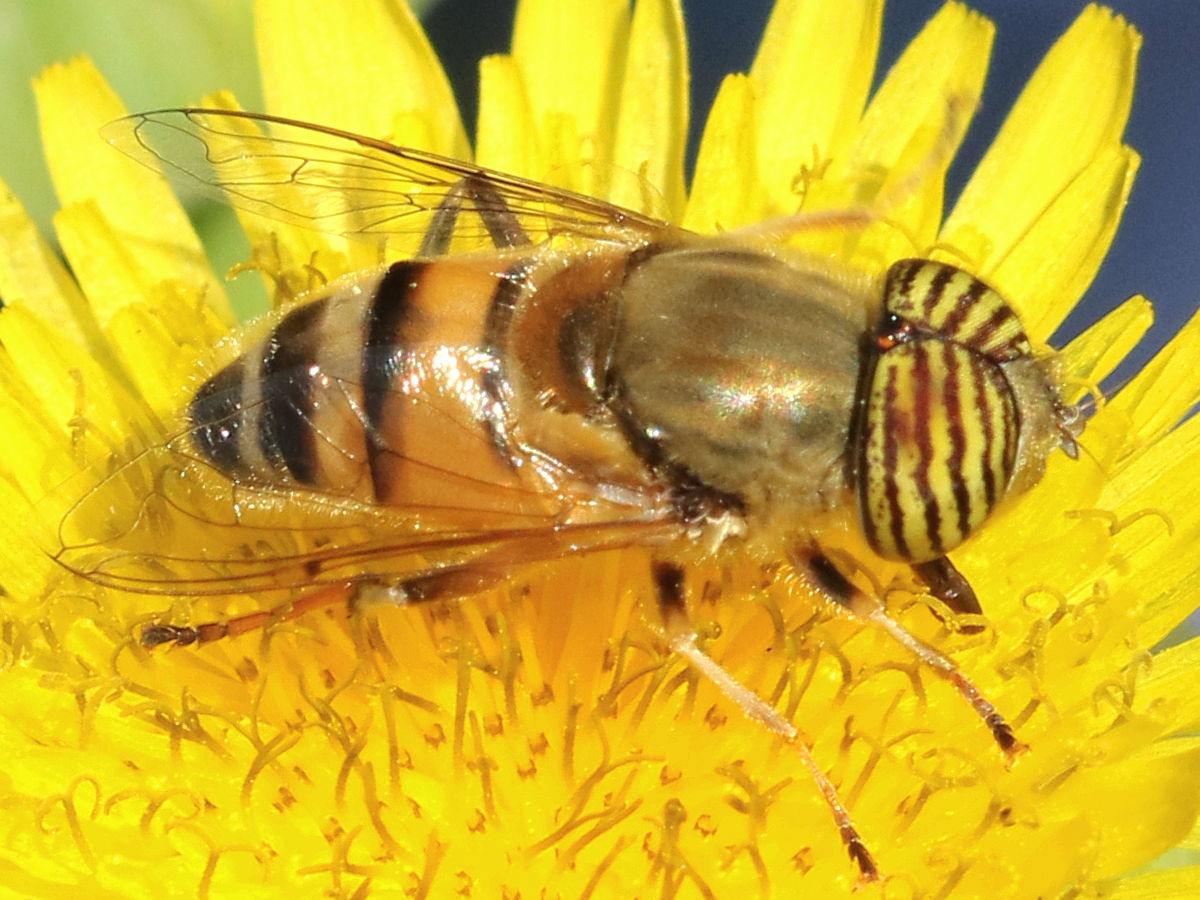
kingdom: Animalia
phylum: Arthropoda
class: Insecta
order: Diptera
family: Syrphidae
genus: Eristalinus
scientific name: Eristalinus taeniops
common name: Syrphid fly
